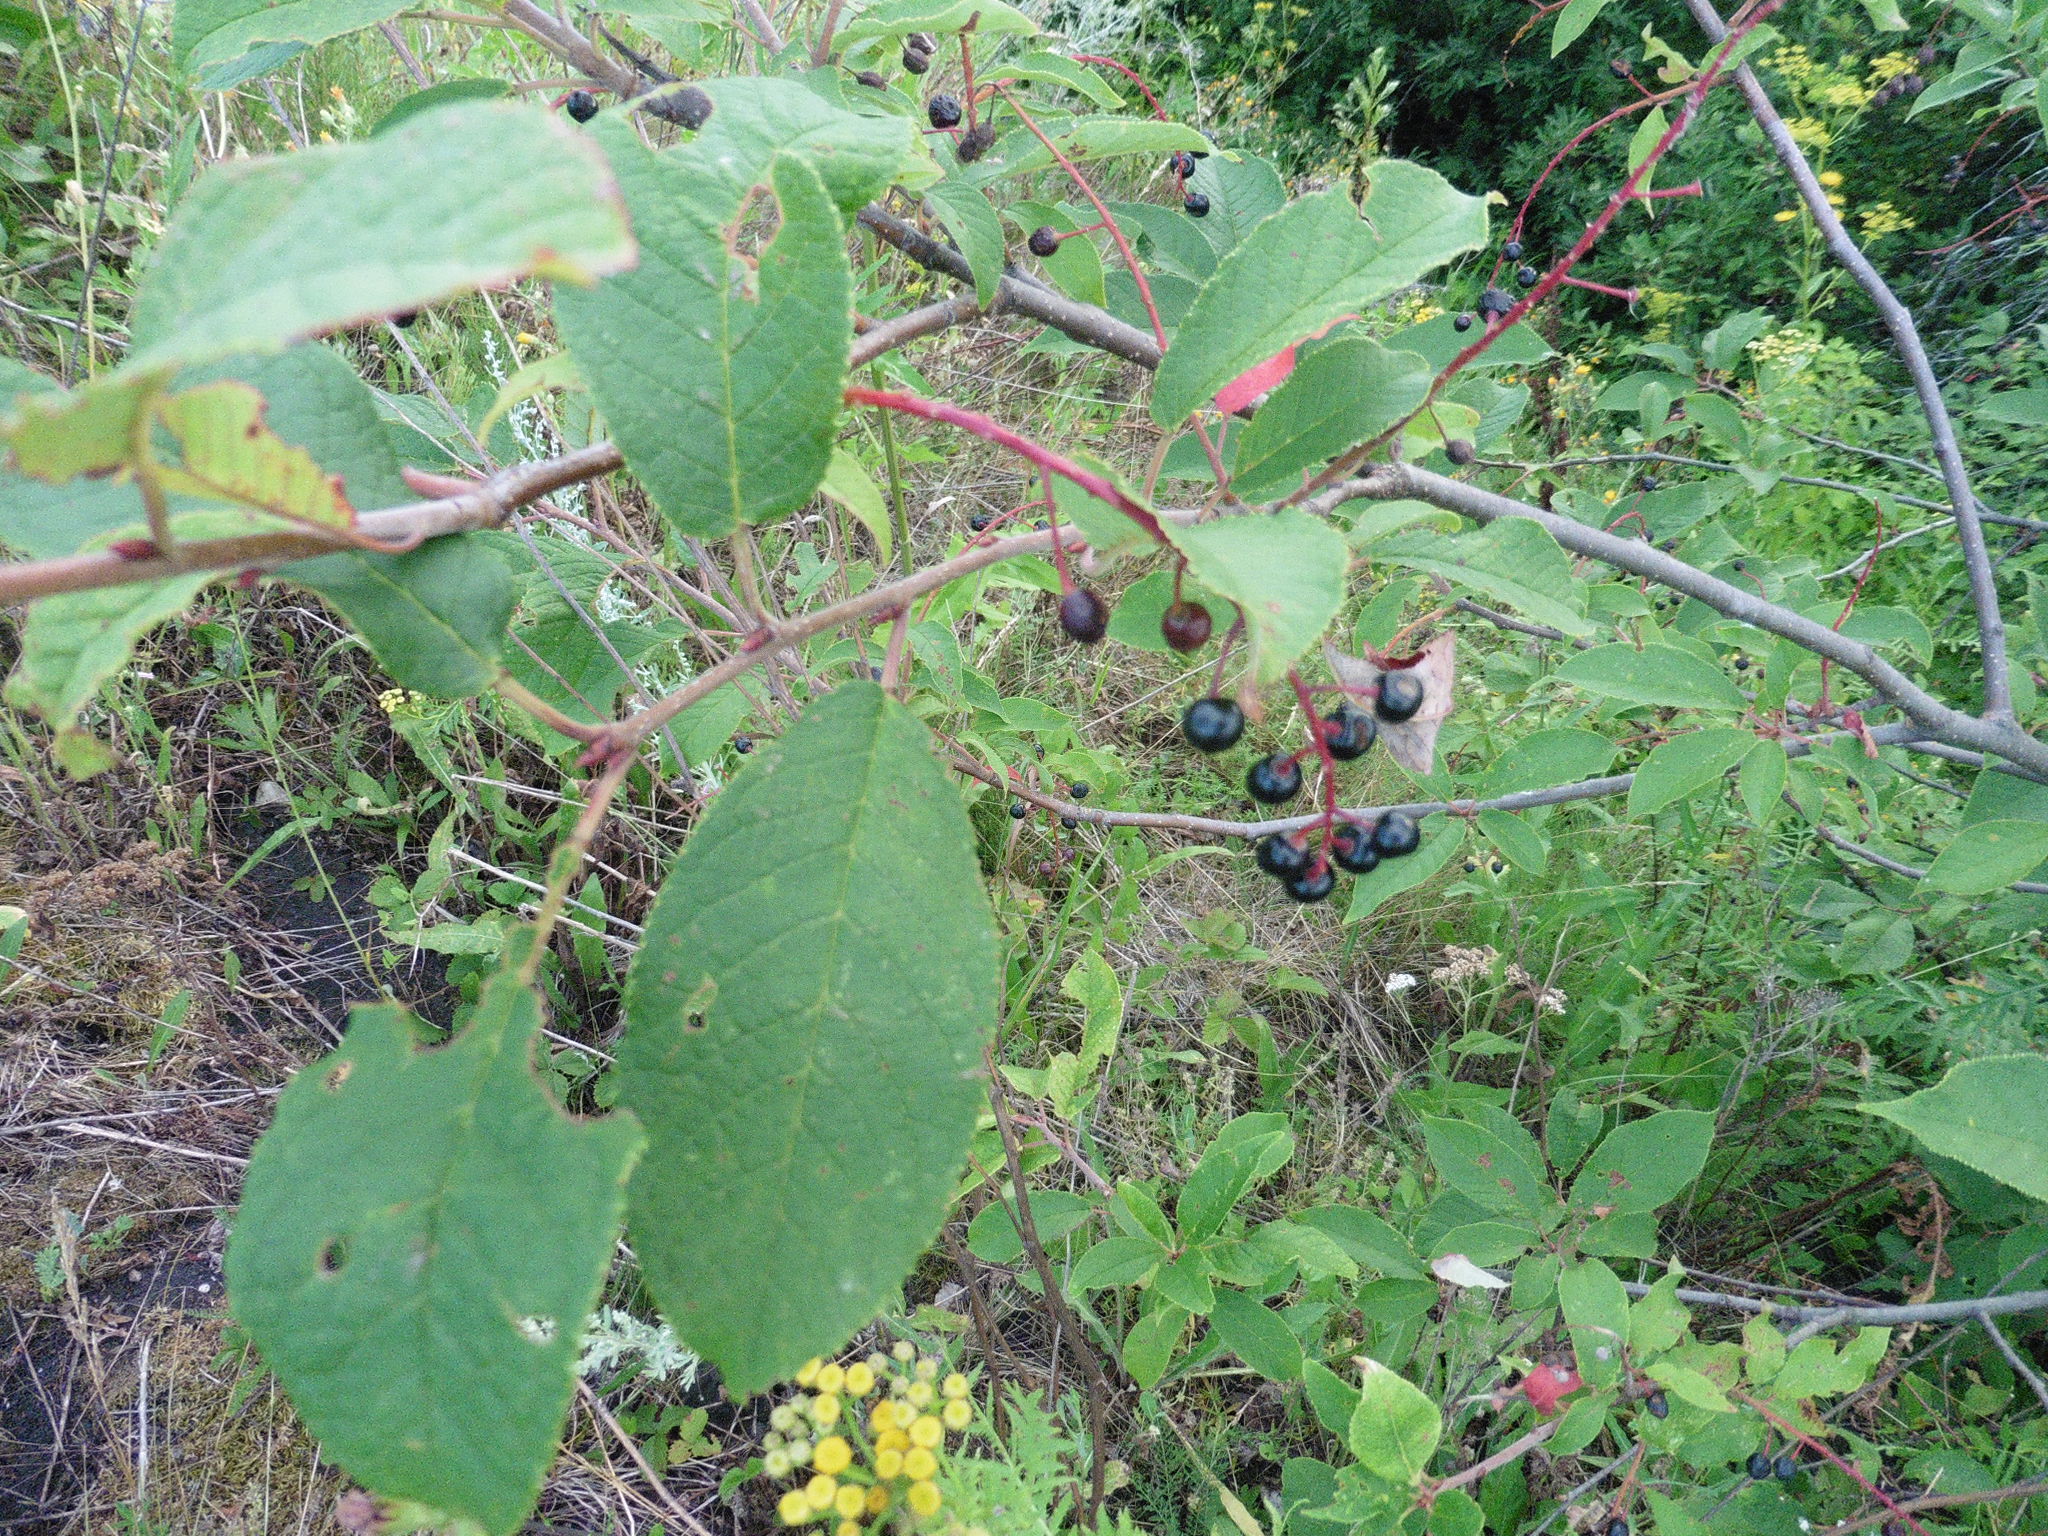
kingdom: Plantae
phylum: Tracheophyta
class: Magnoliopsida
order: Rosales
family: Rosaceae
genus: Prunus
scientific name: Prunus padus
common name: Bird cherry
